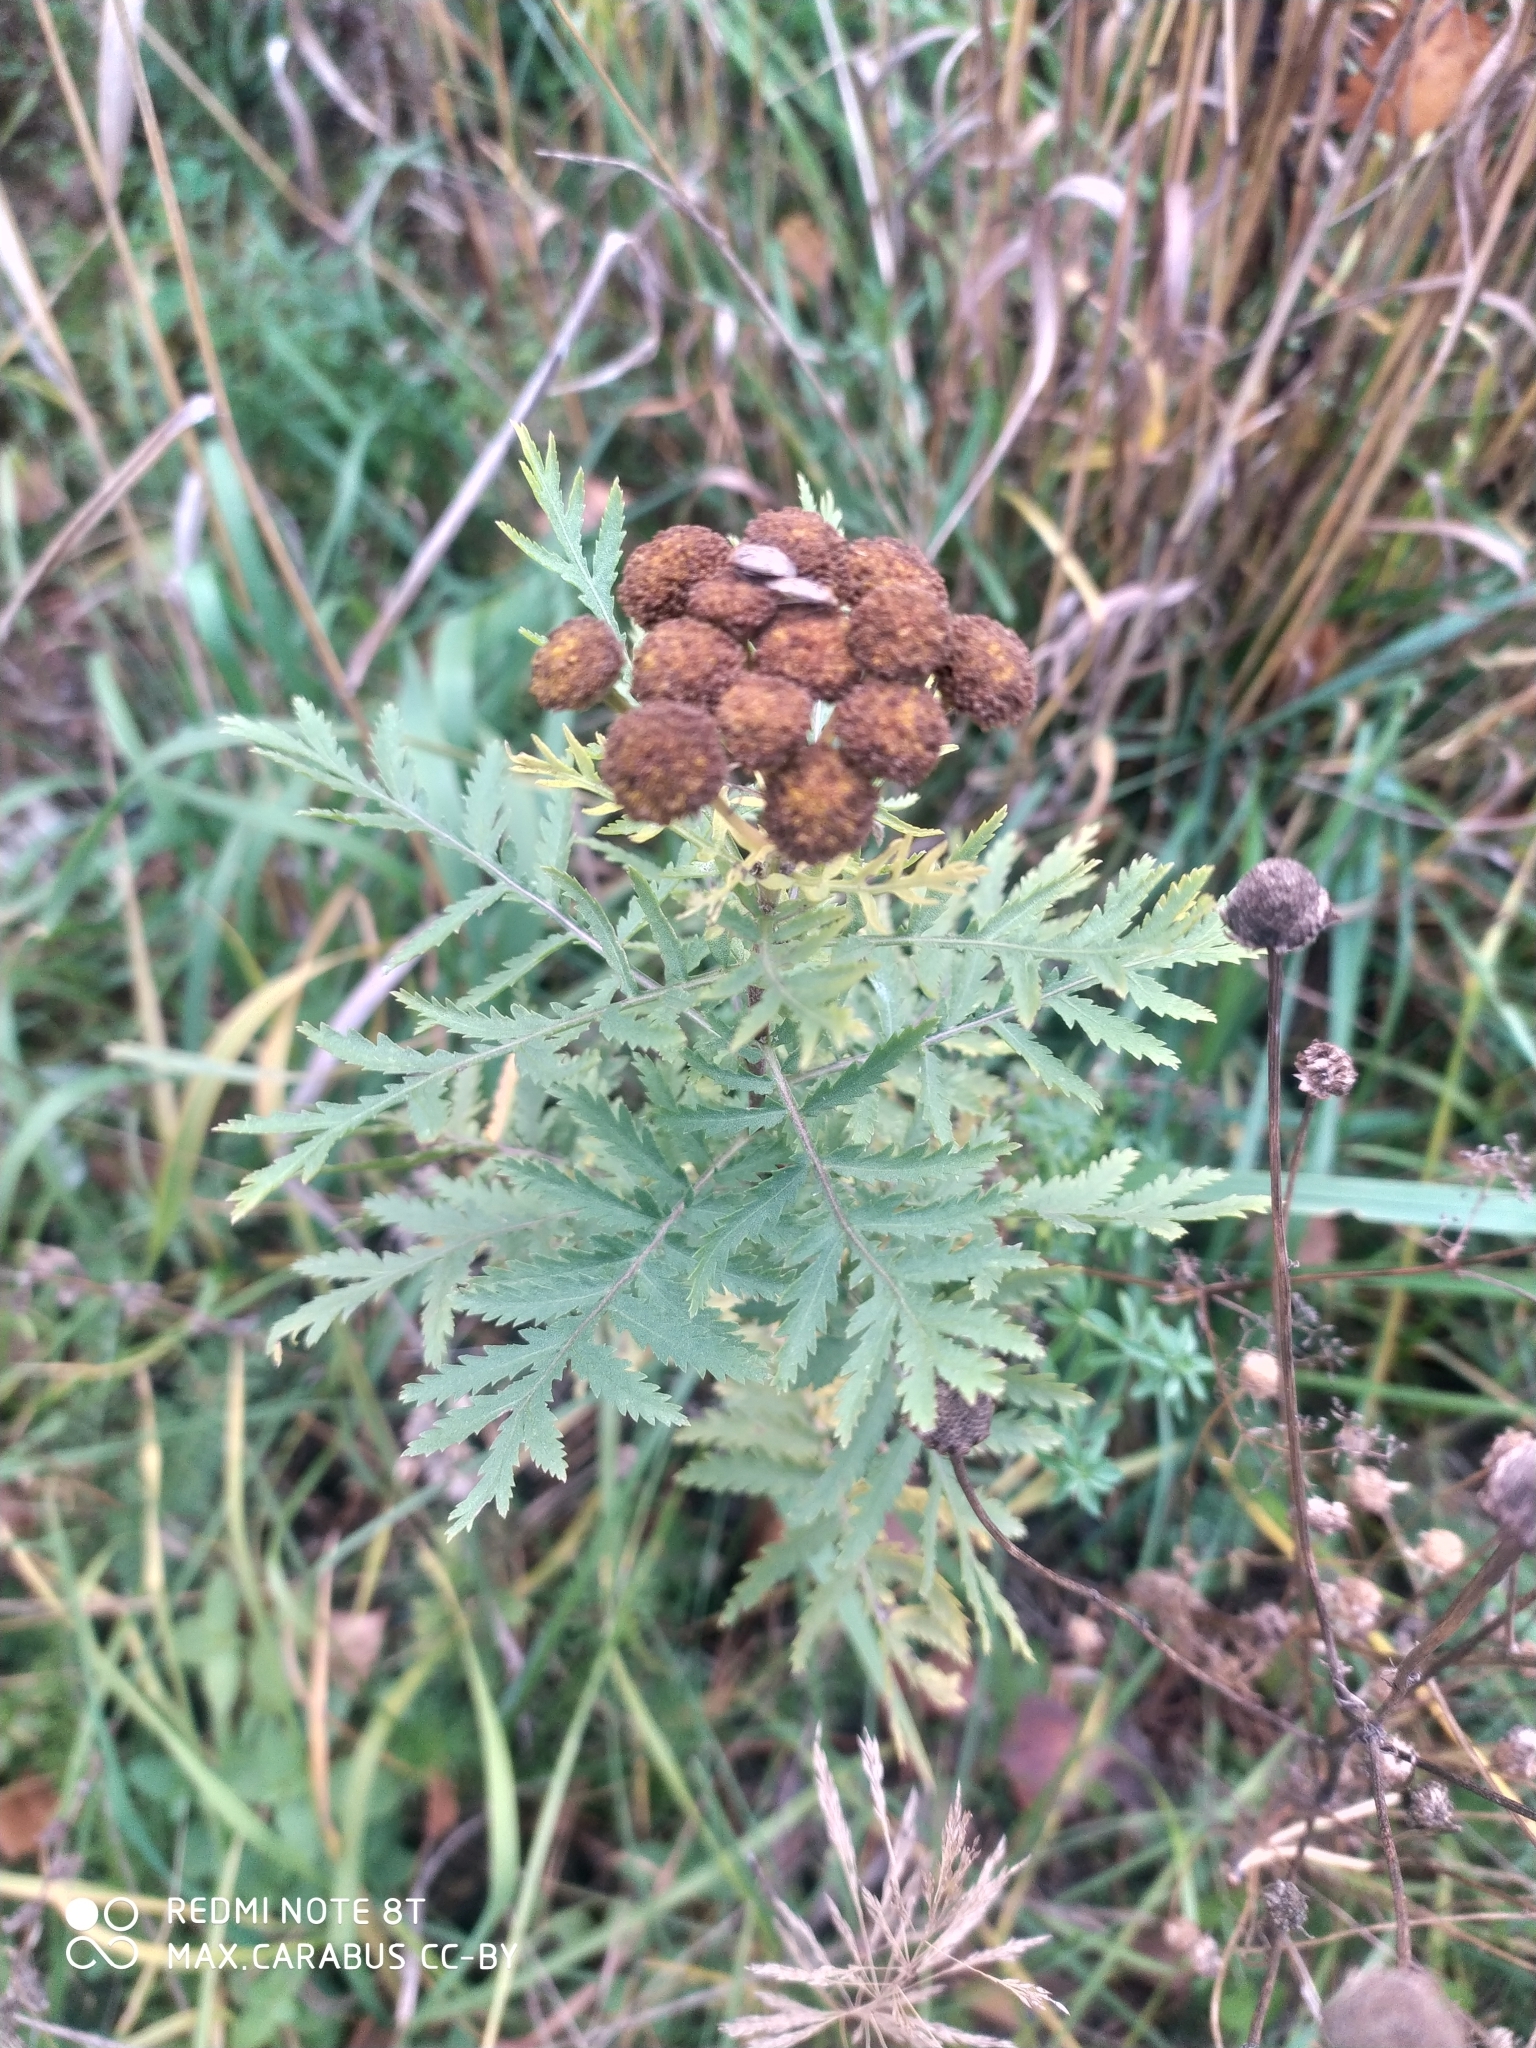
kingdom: Plantae
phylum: Tracheophyta
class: Magnoliopsida
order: Asterales
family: Asteraceae
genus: Tanacetum
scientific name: Tanacetum vulgare
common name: Common tansy
